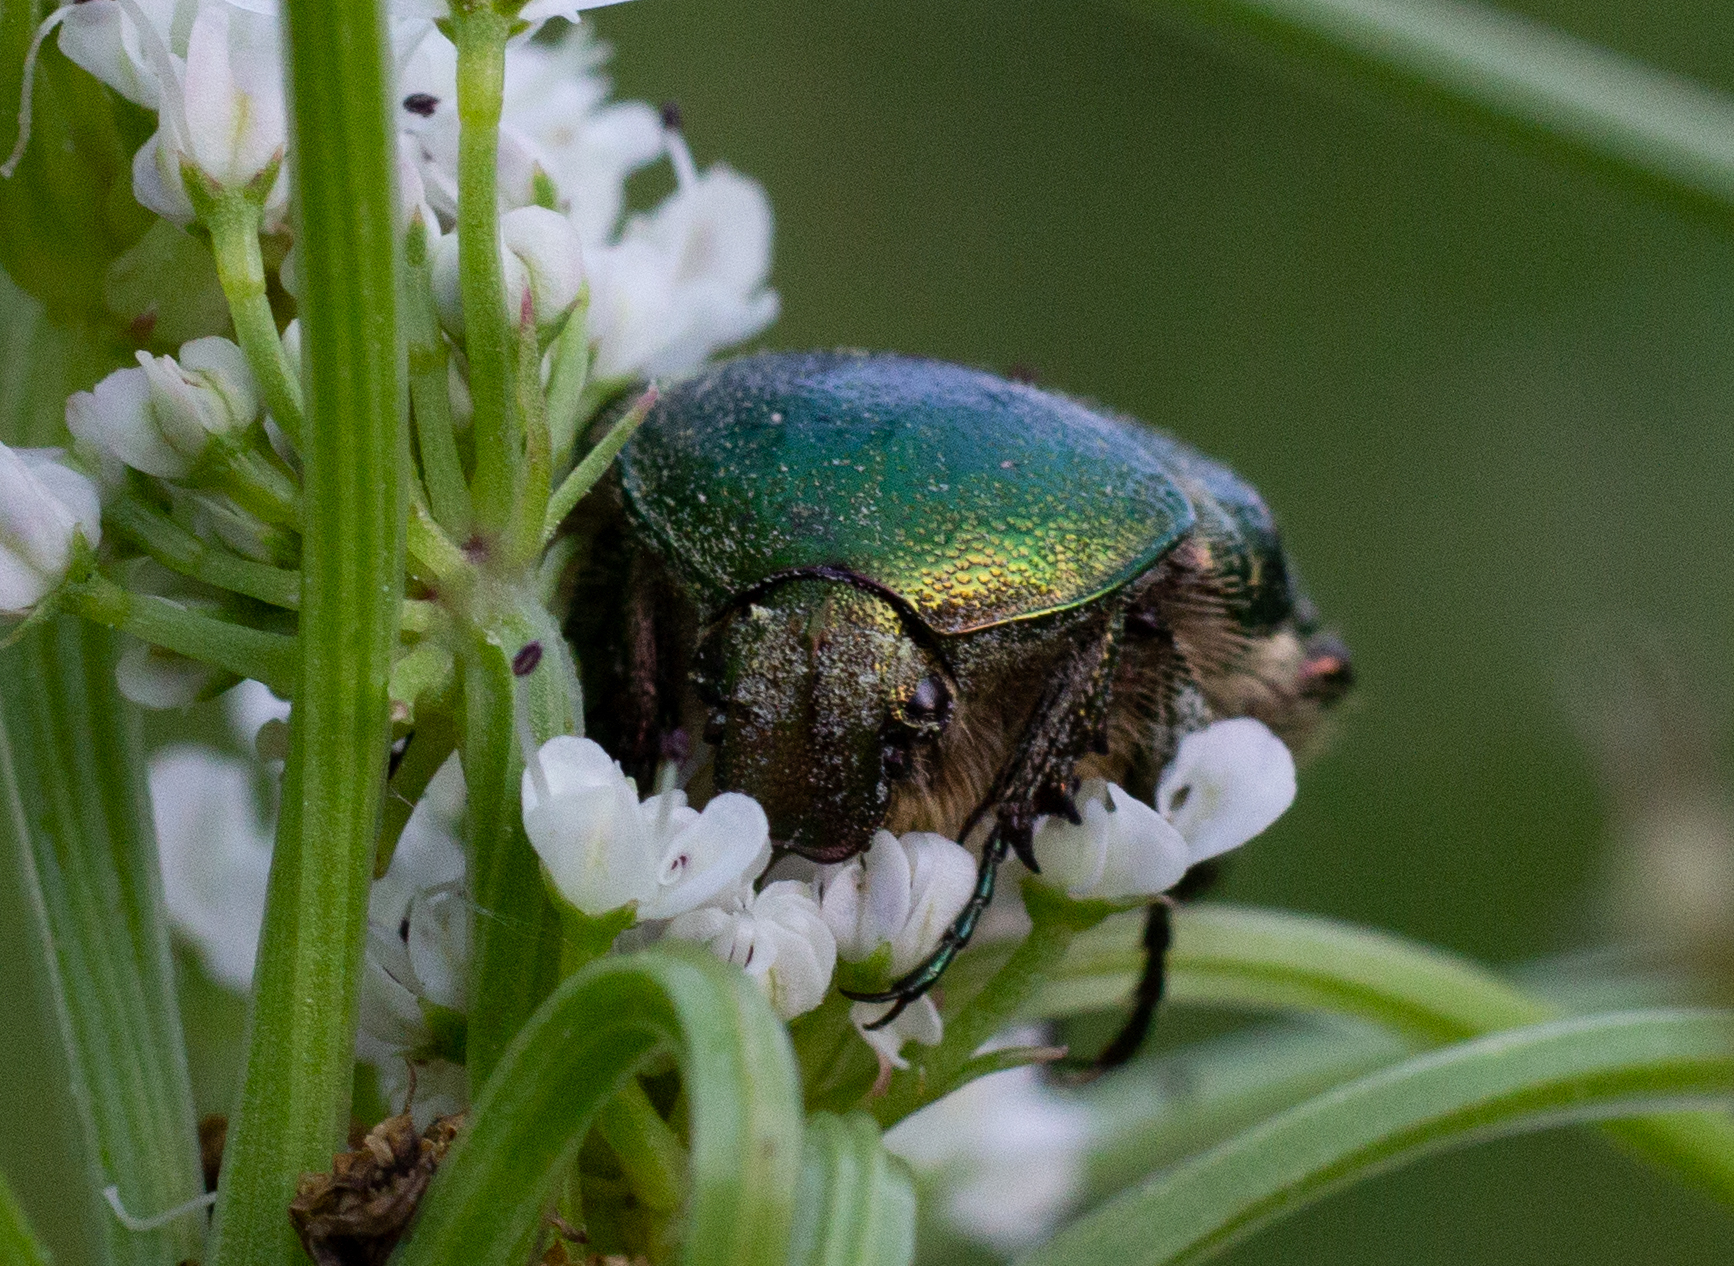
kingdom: Animalia
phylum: Arthropoda
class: Insecta
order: Coleoptera
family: Scarabaeidae
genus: Cetonia
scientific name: Cetonia
